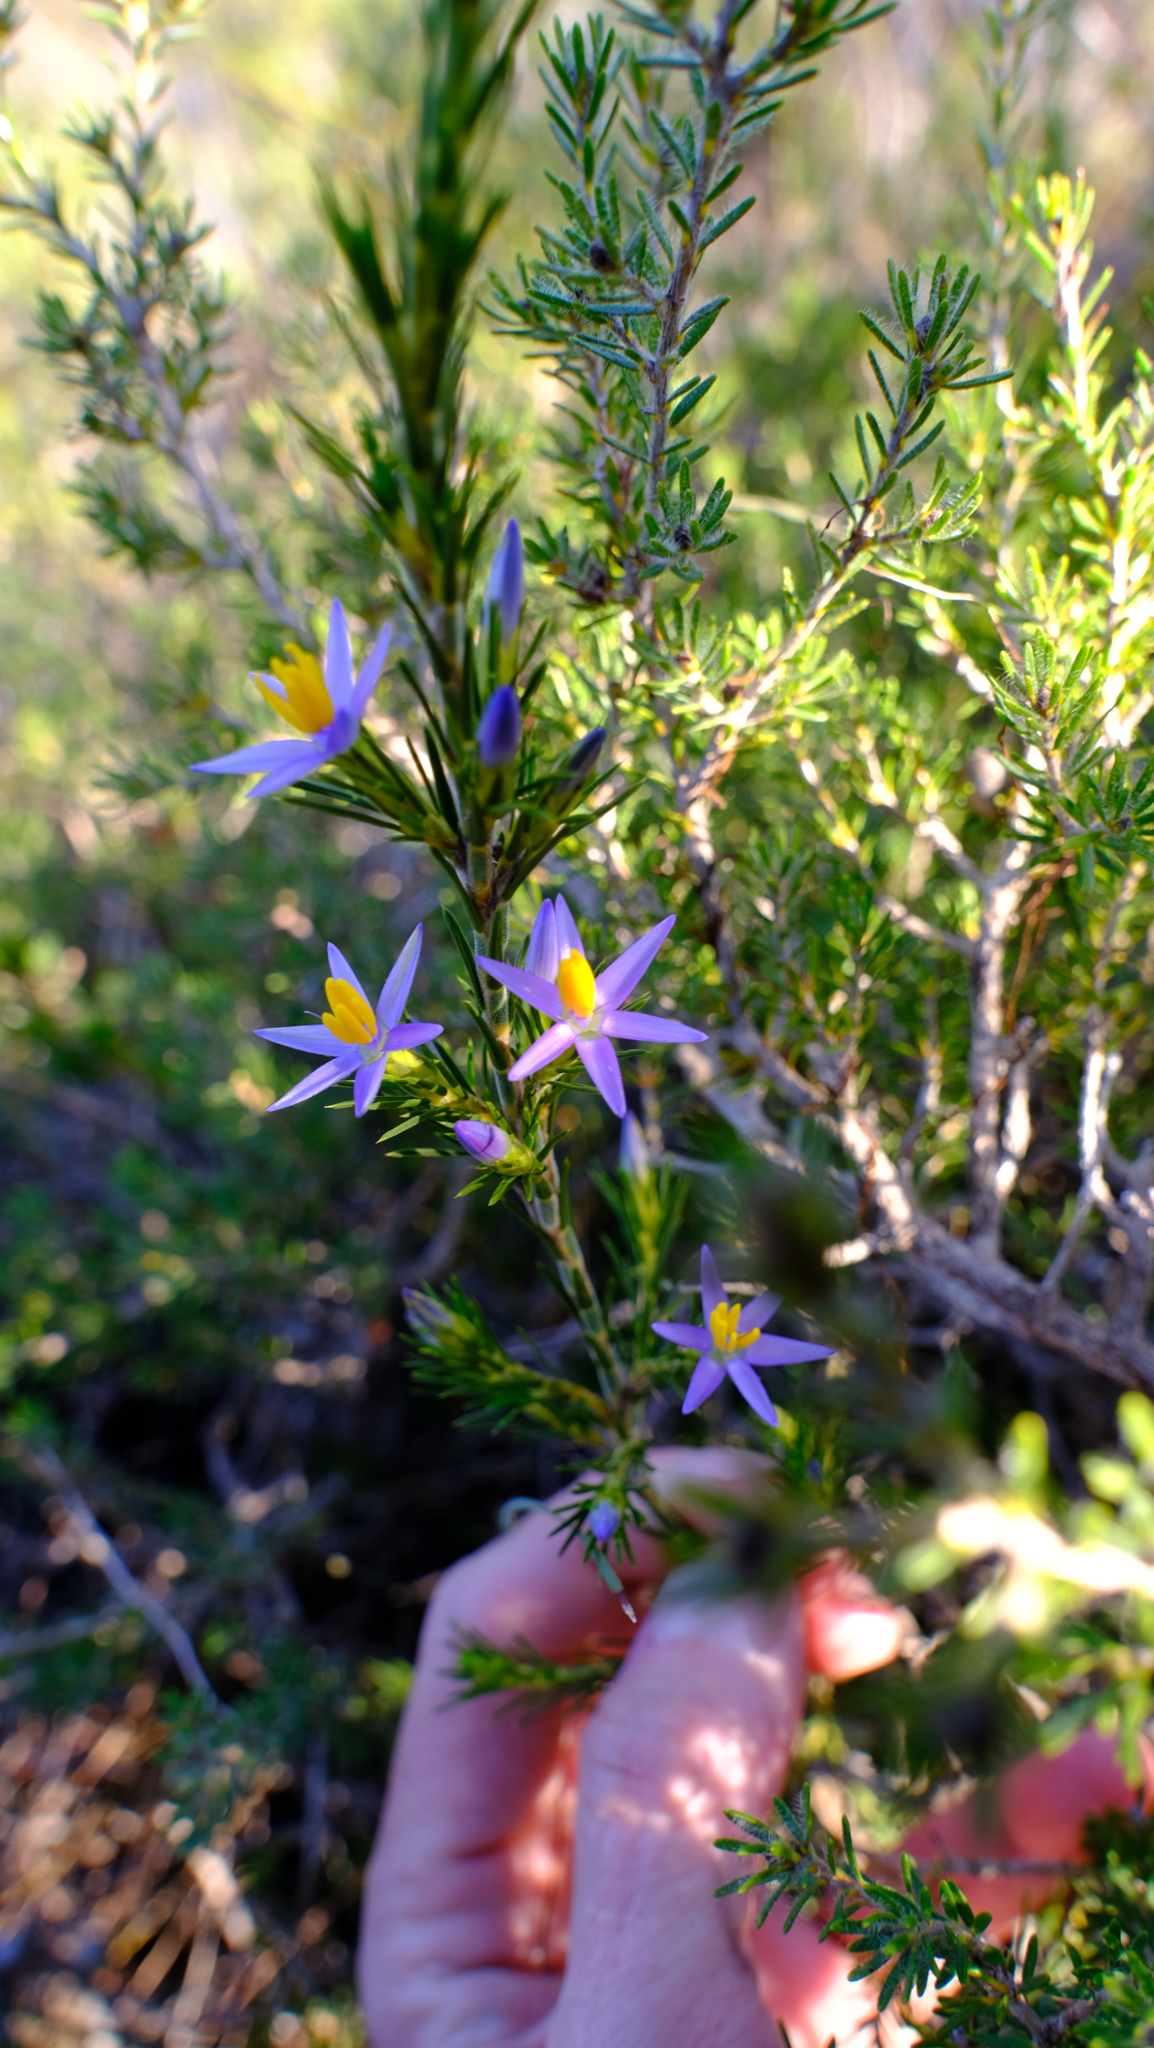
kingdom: Plantae
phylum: Tracheophyta
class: Liliopsida
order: Arecales
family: Dasypogonaceae
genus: Calectasia
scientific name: Calectasia narragara
